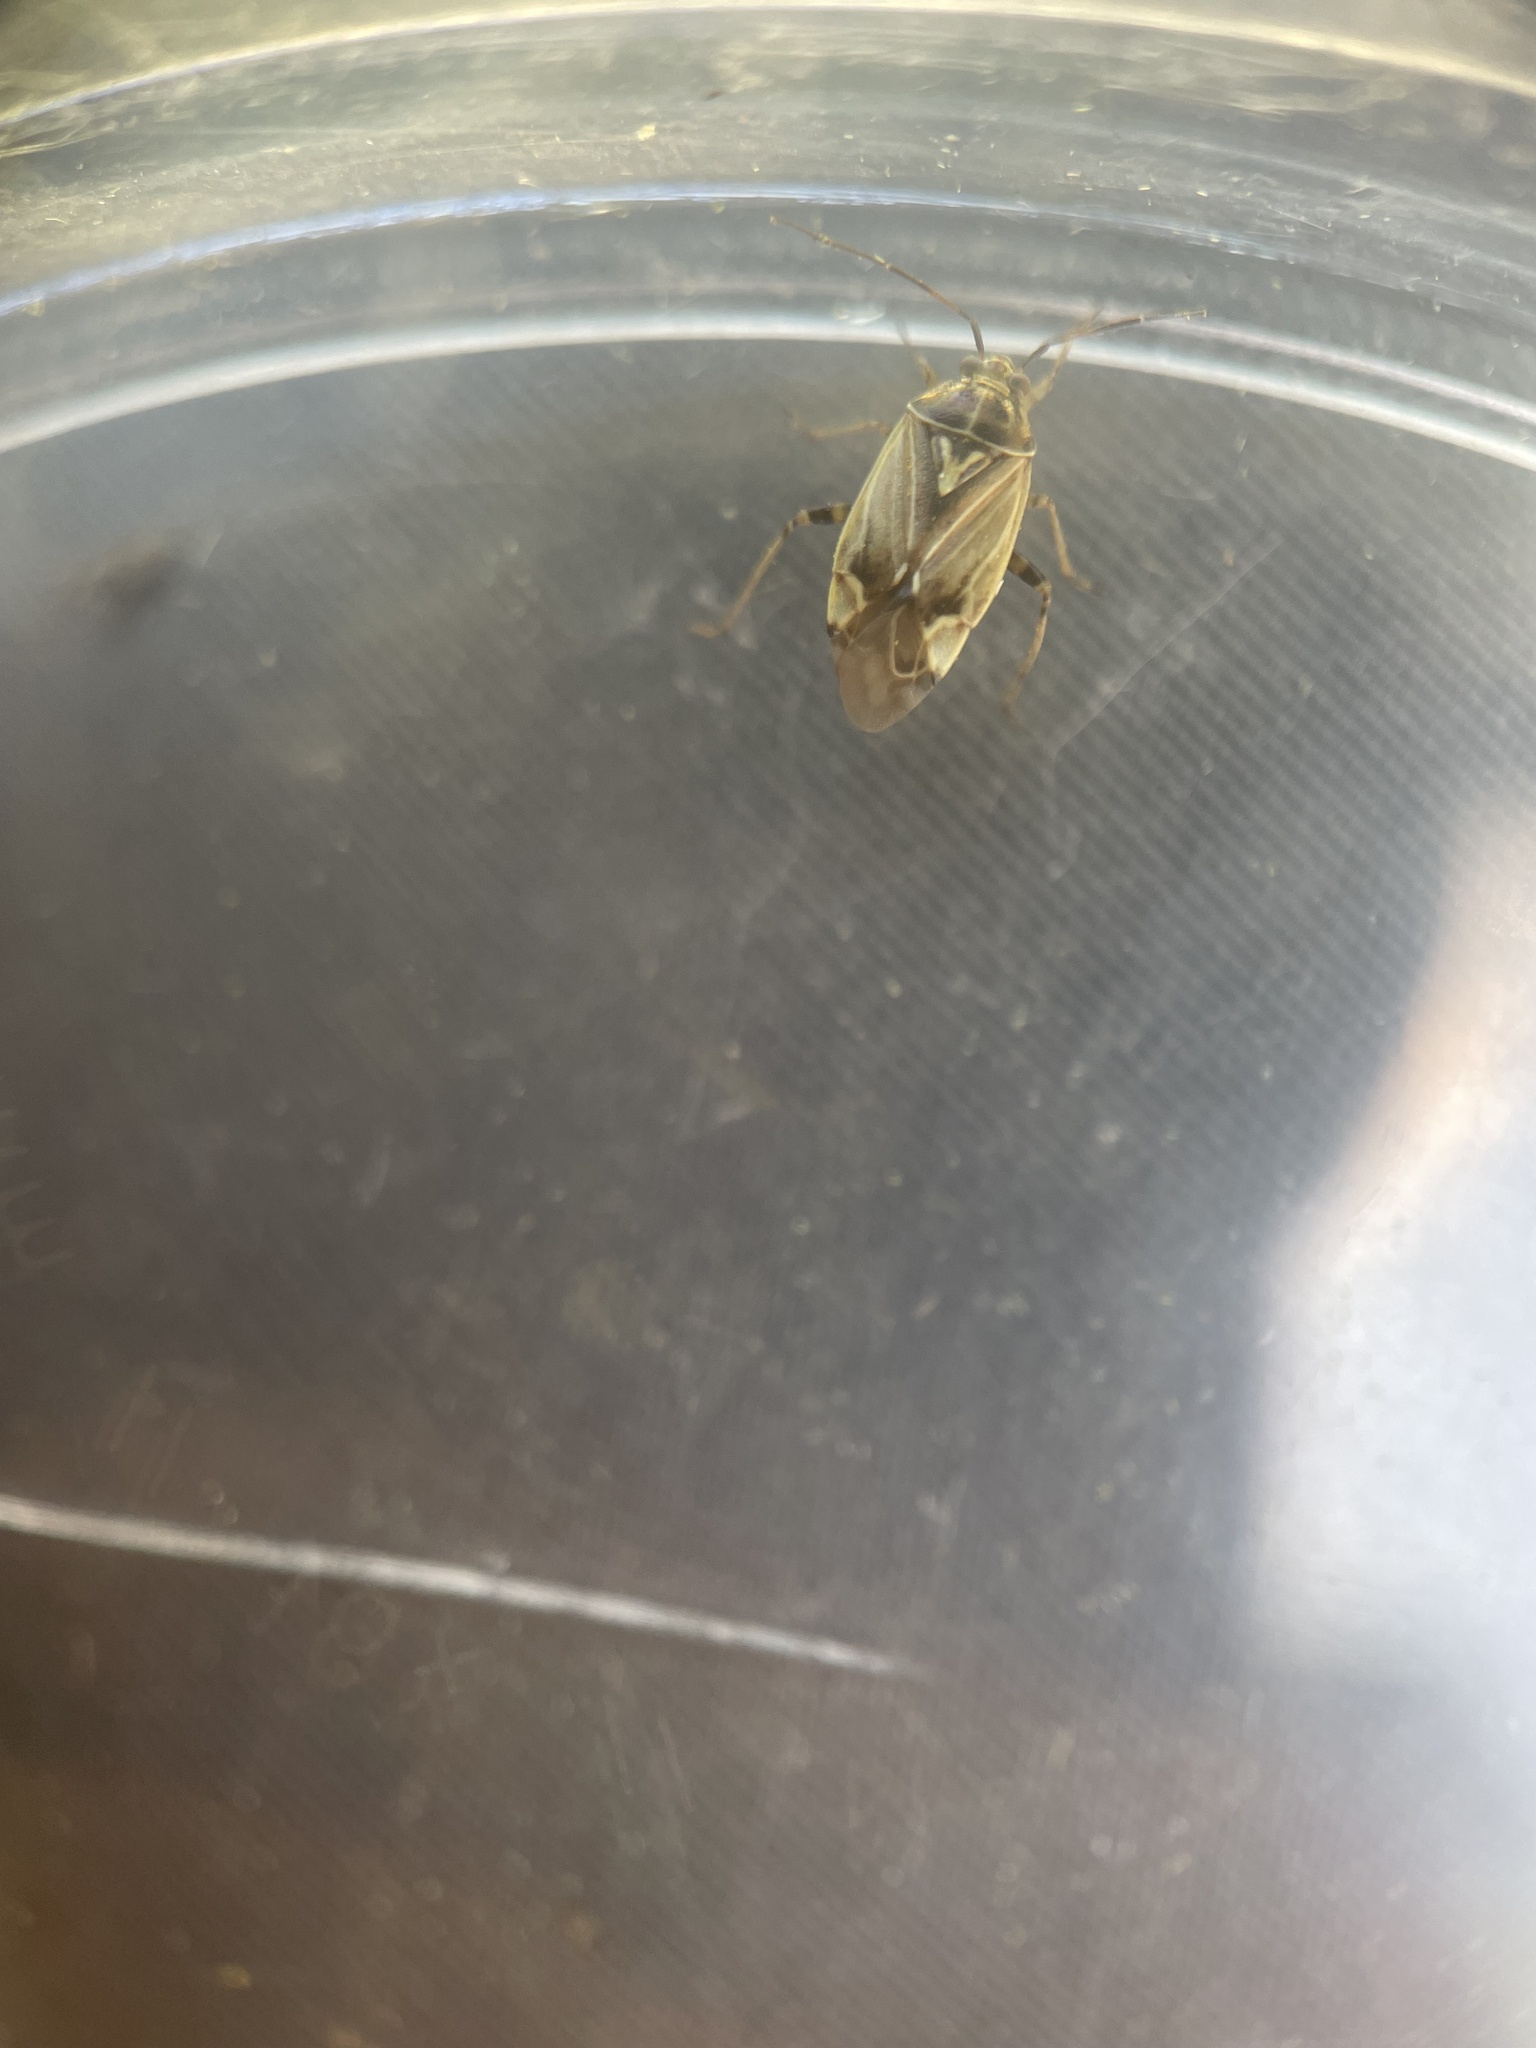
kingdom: Animalia
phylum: Arthropoda
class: Insecta
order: Hemiptera
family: Miridae
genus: Lygus
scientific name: Lygus lineolaris
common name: North american tarnished plant bug
